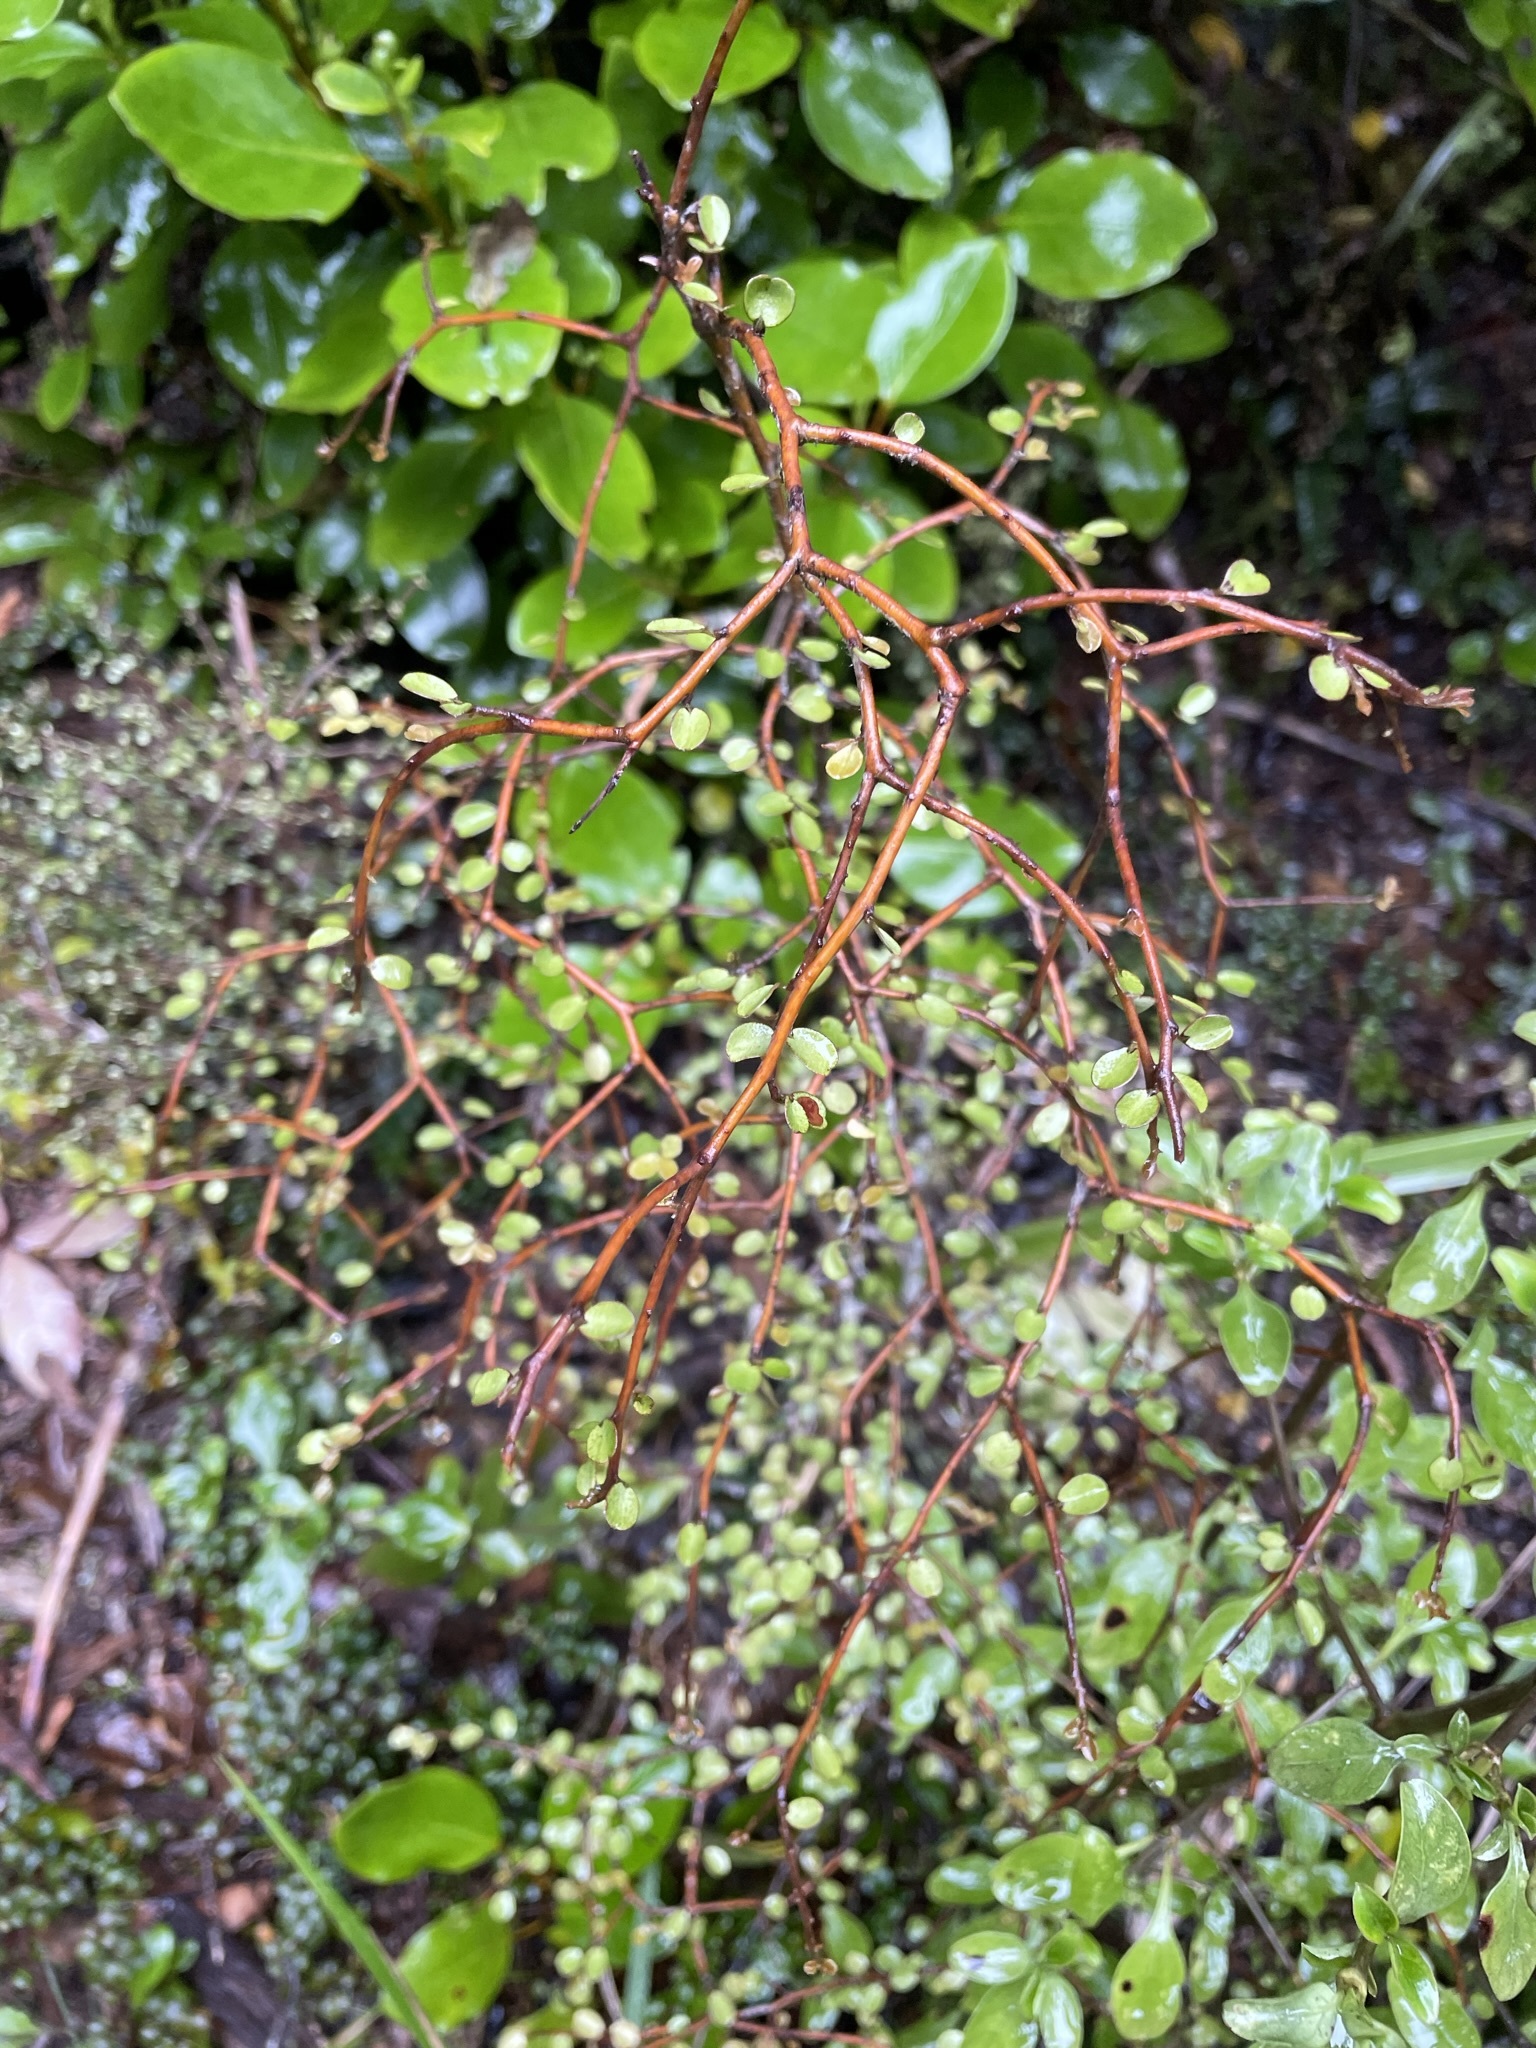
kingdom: Plantae
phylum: Tracheophyta
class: Magnoliopsida
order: Ericales
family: Primulaceae
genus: Myrsine
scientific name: Myrsine divaricata
